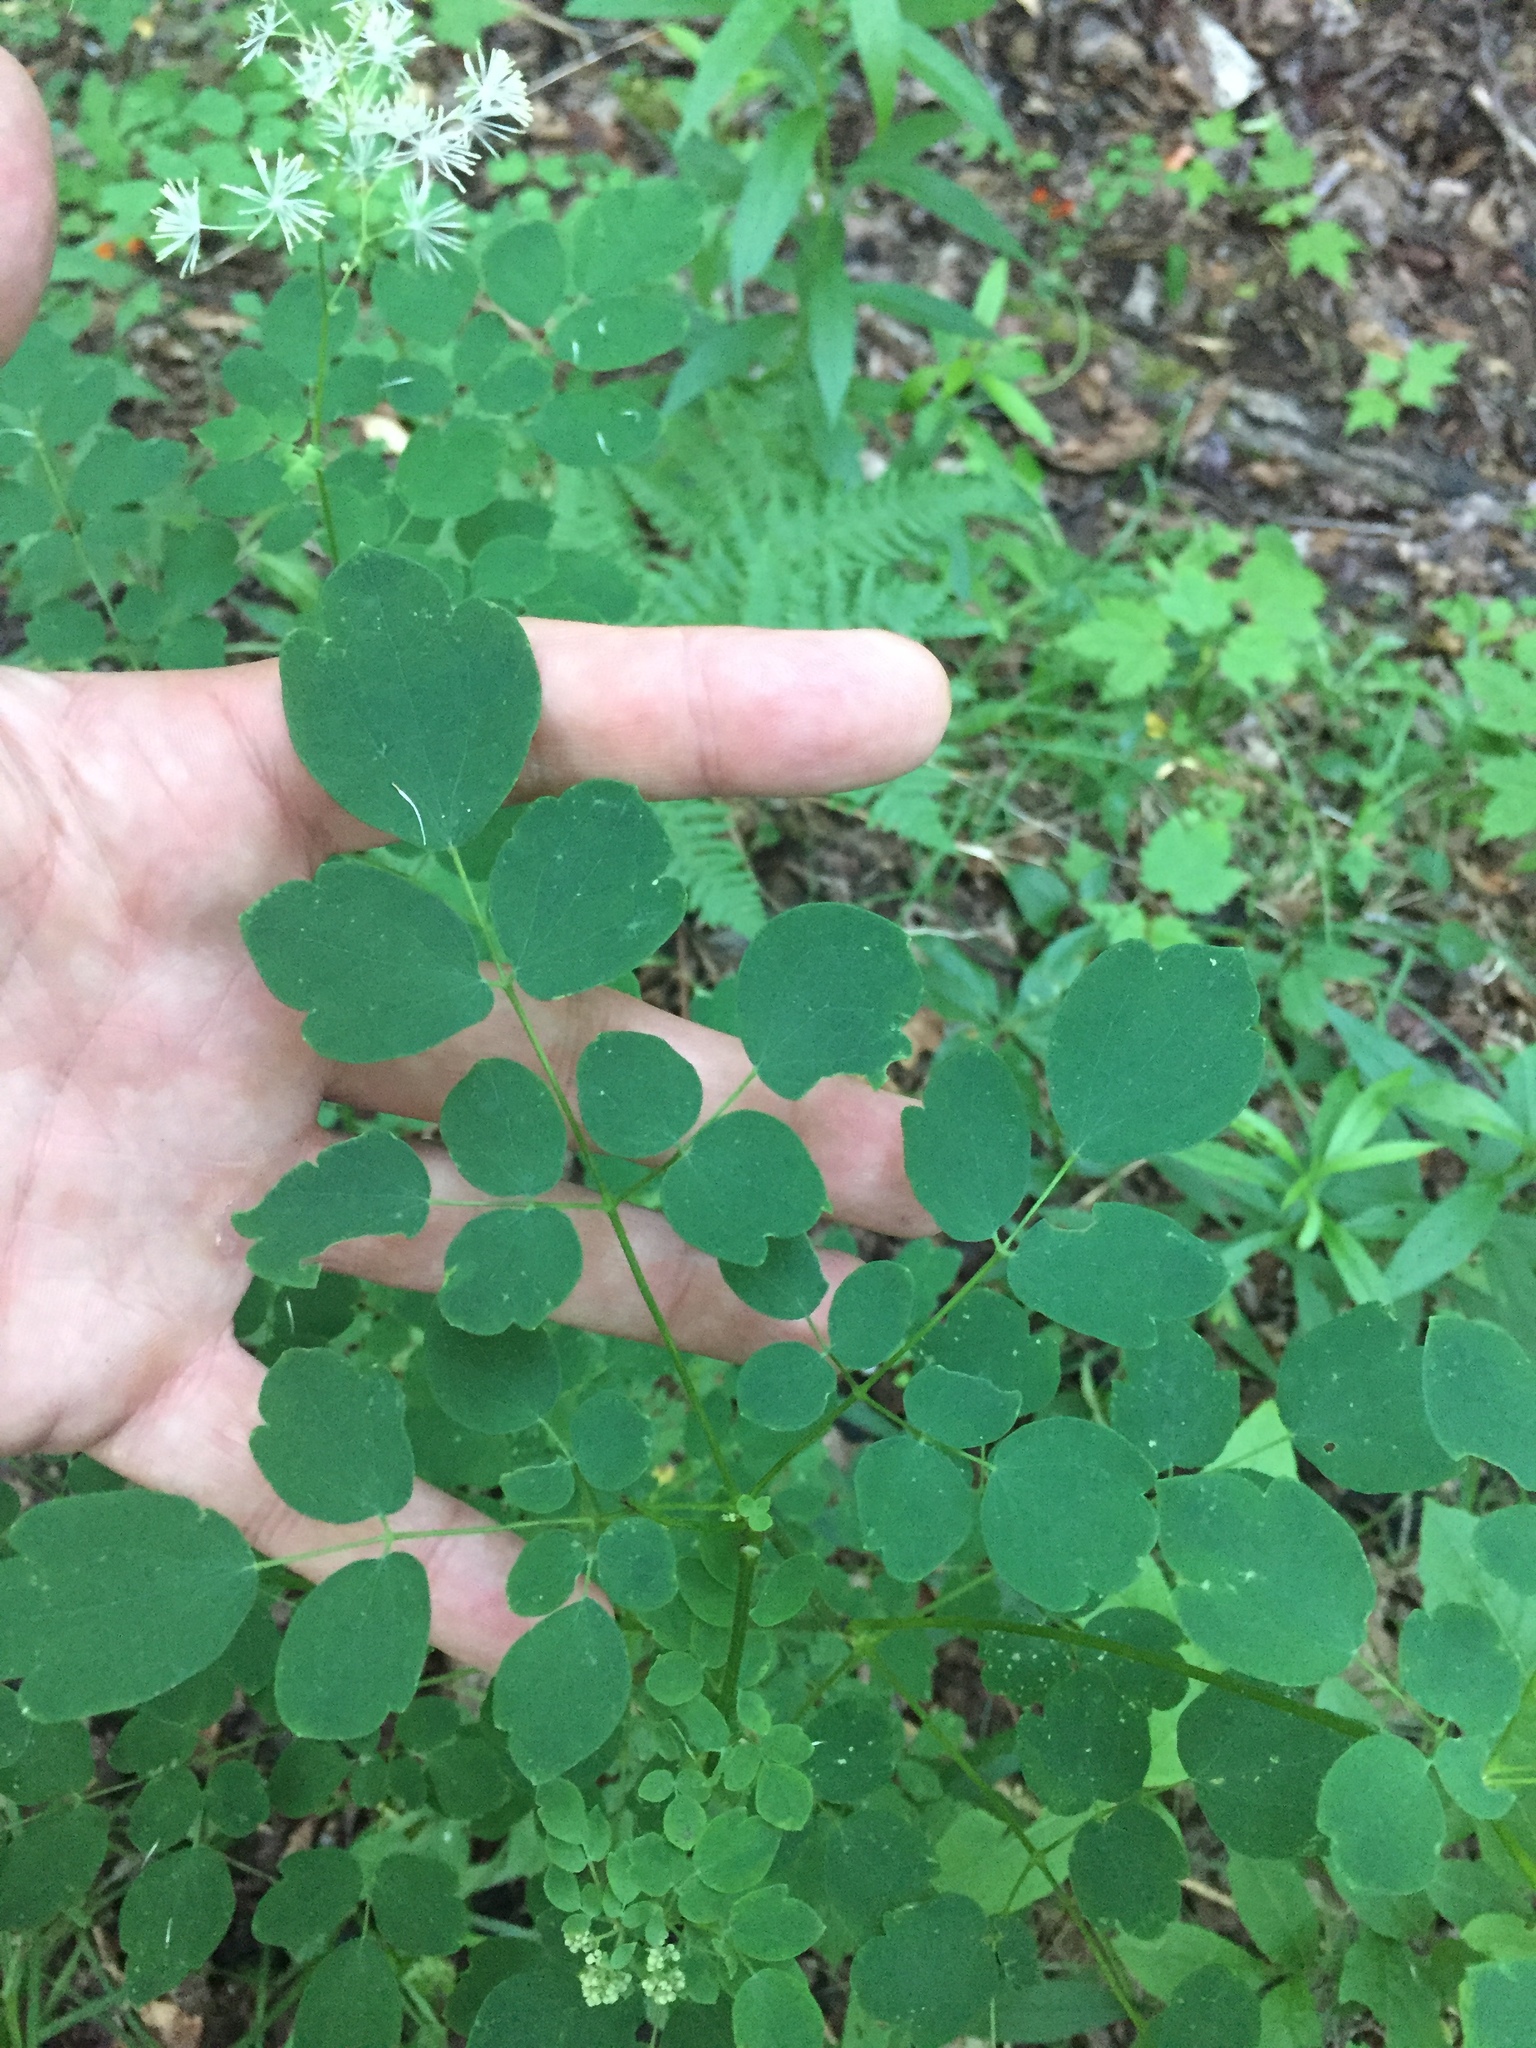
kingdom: Plantae
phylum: Tracheophyta
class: Magnoliopsida
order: Ranunculales
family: Ranunculaceae
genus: Thalictrum
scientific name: Thalictrum pubescens
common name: King-of-the-meadow
